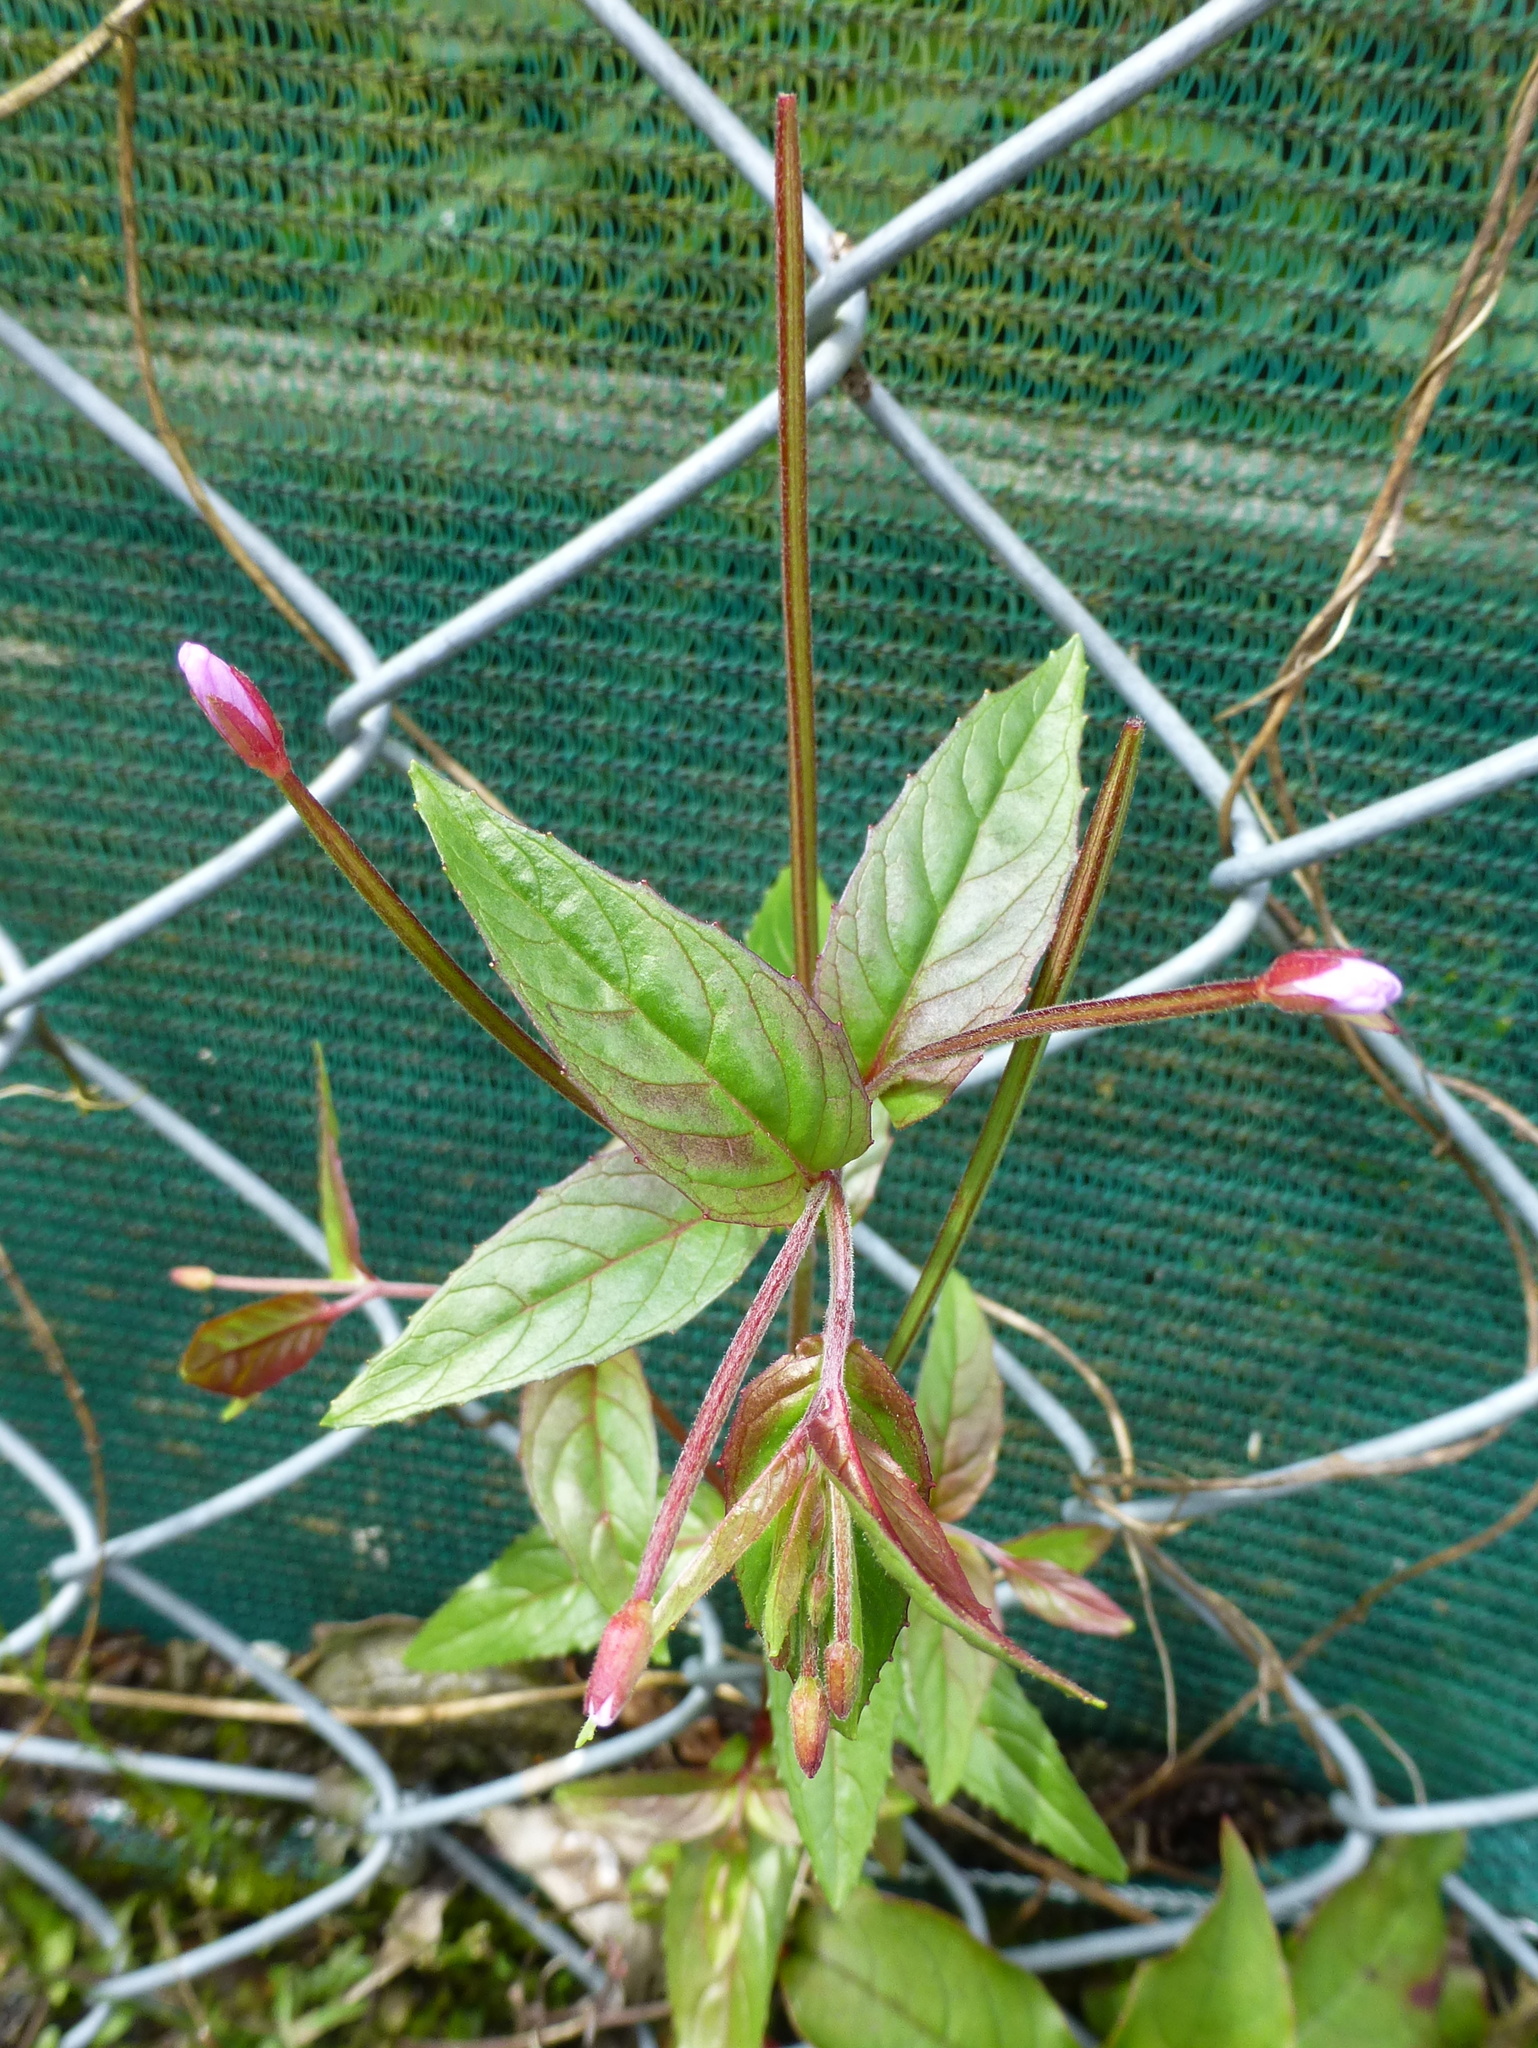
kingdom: Plantae
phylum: Tracheophyta
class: Magnoliopsida
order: Myrtales
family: Onagraceae
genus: Epilobium
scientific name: Epilobium ciliatum
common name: American willowherb
